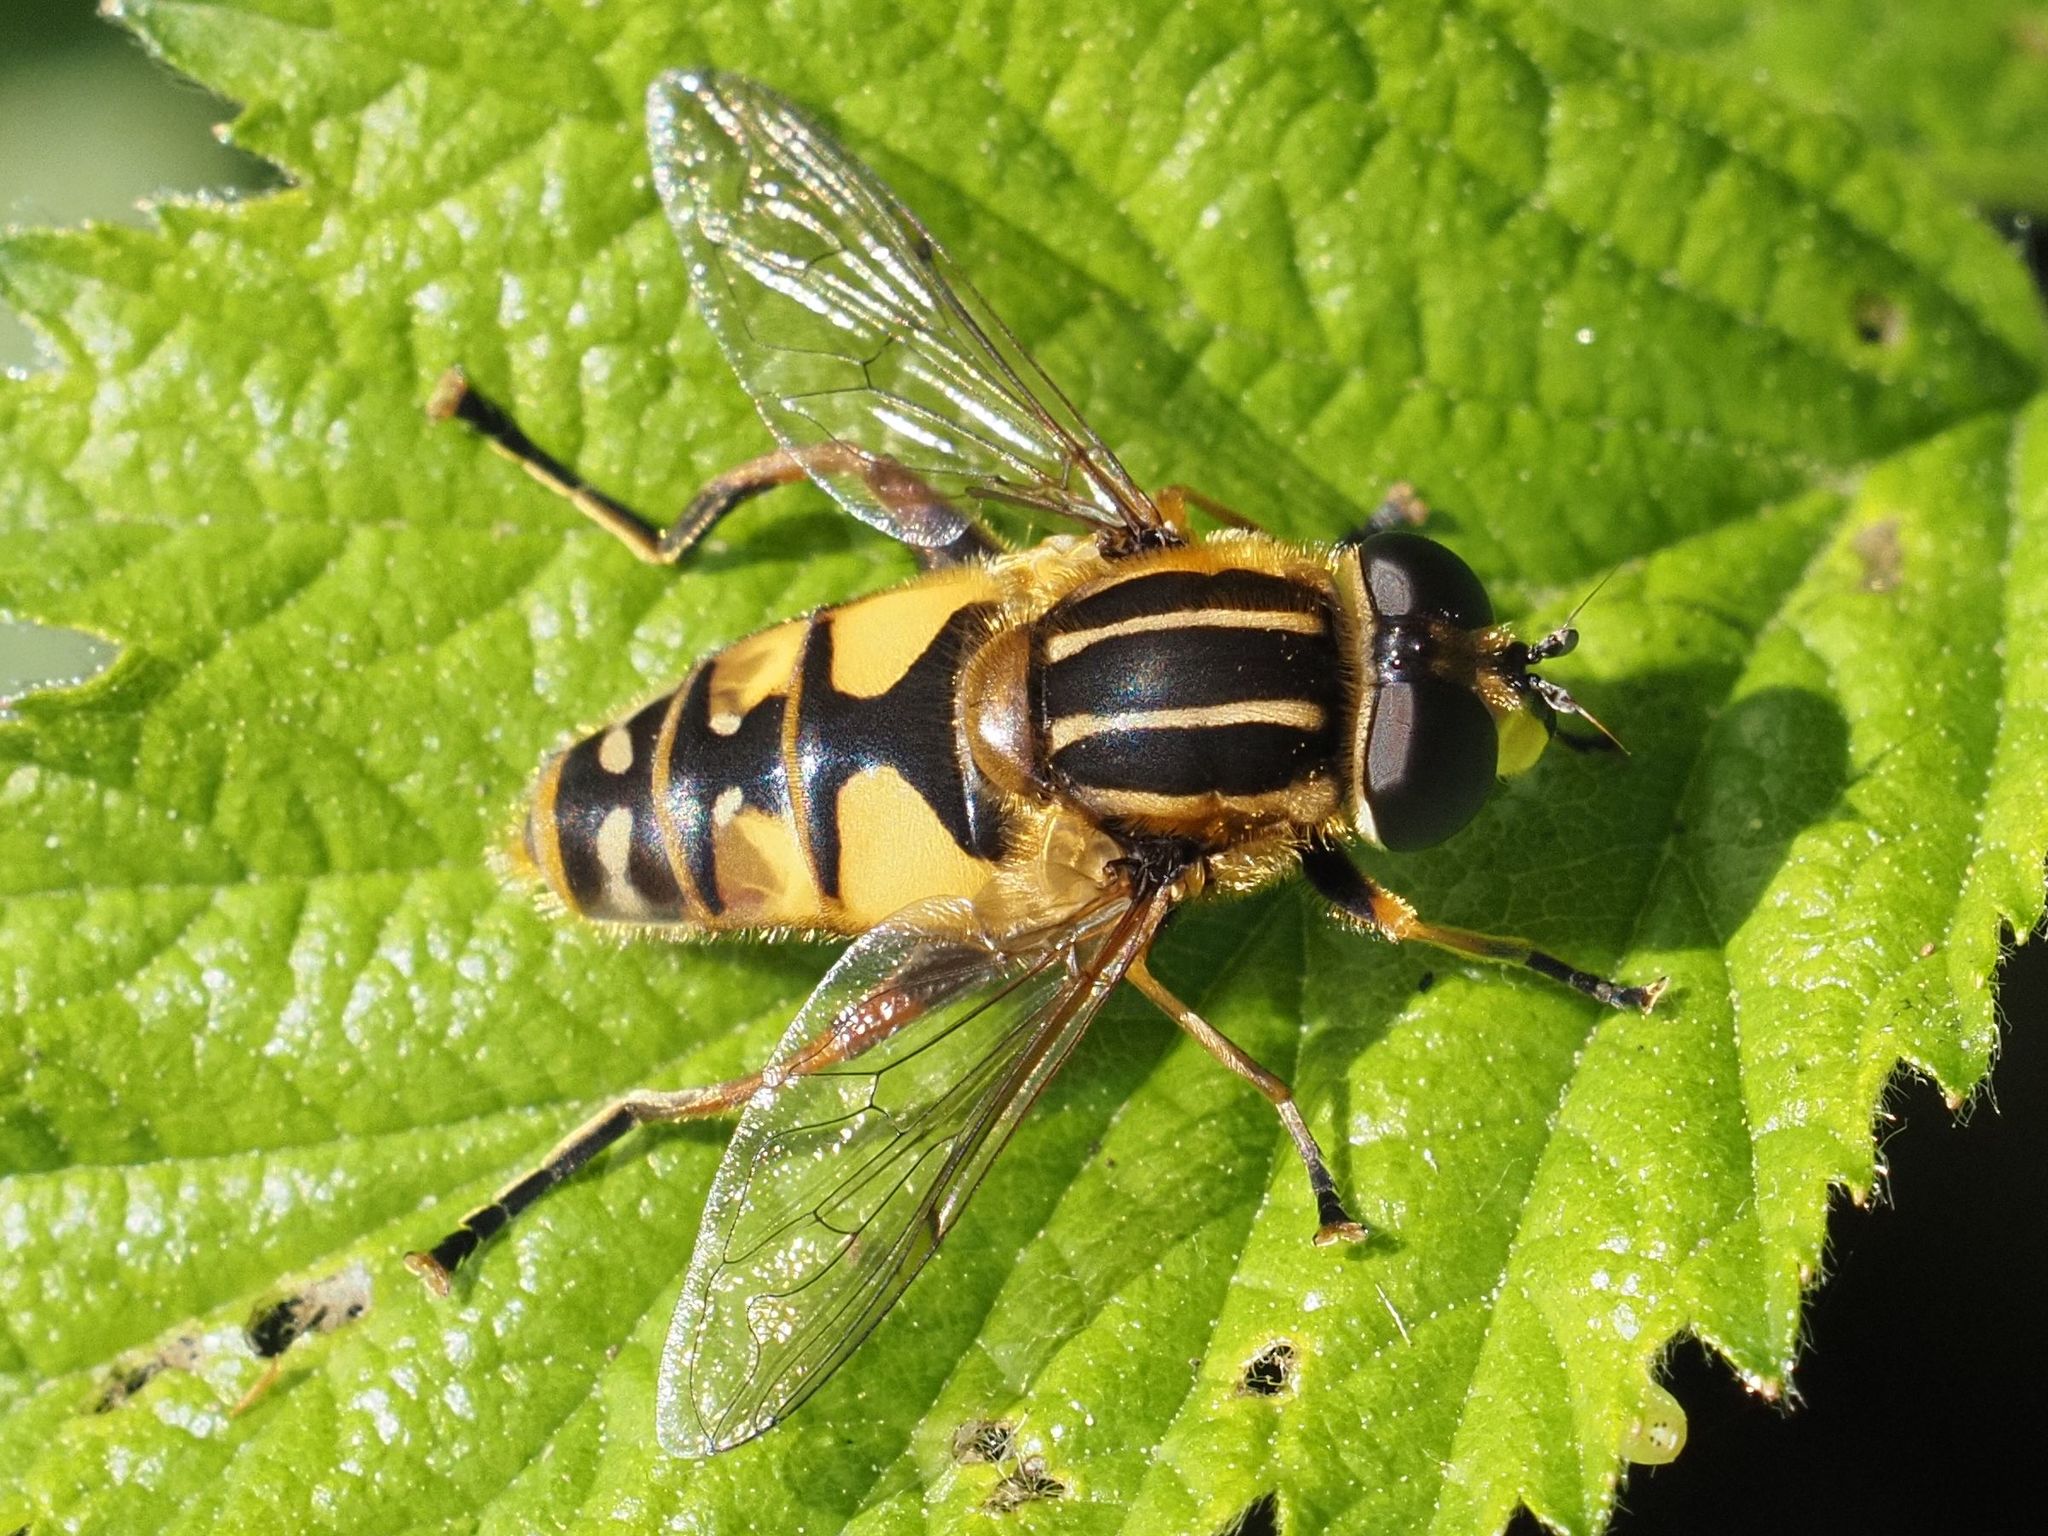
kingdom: Animalia
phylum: Arthropoda
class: Insecta
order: Diptera
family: Syrphidae
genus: Helophilus
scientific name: Helophilus pendulus
